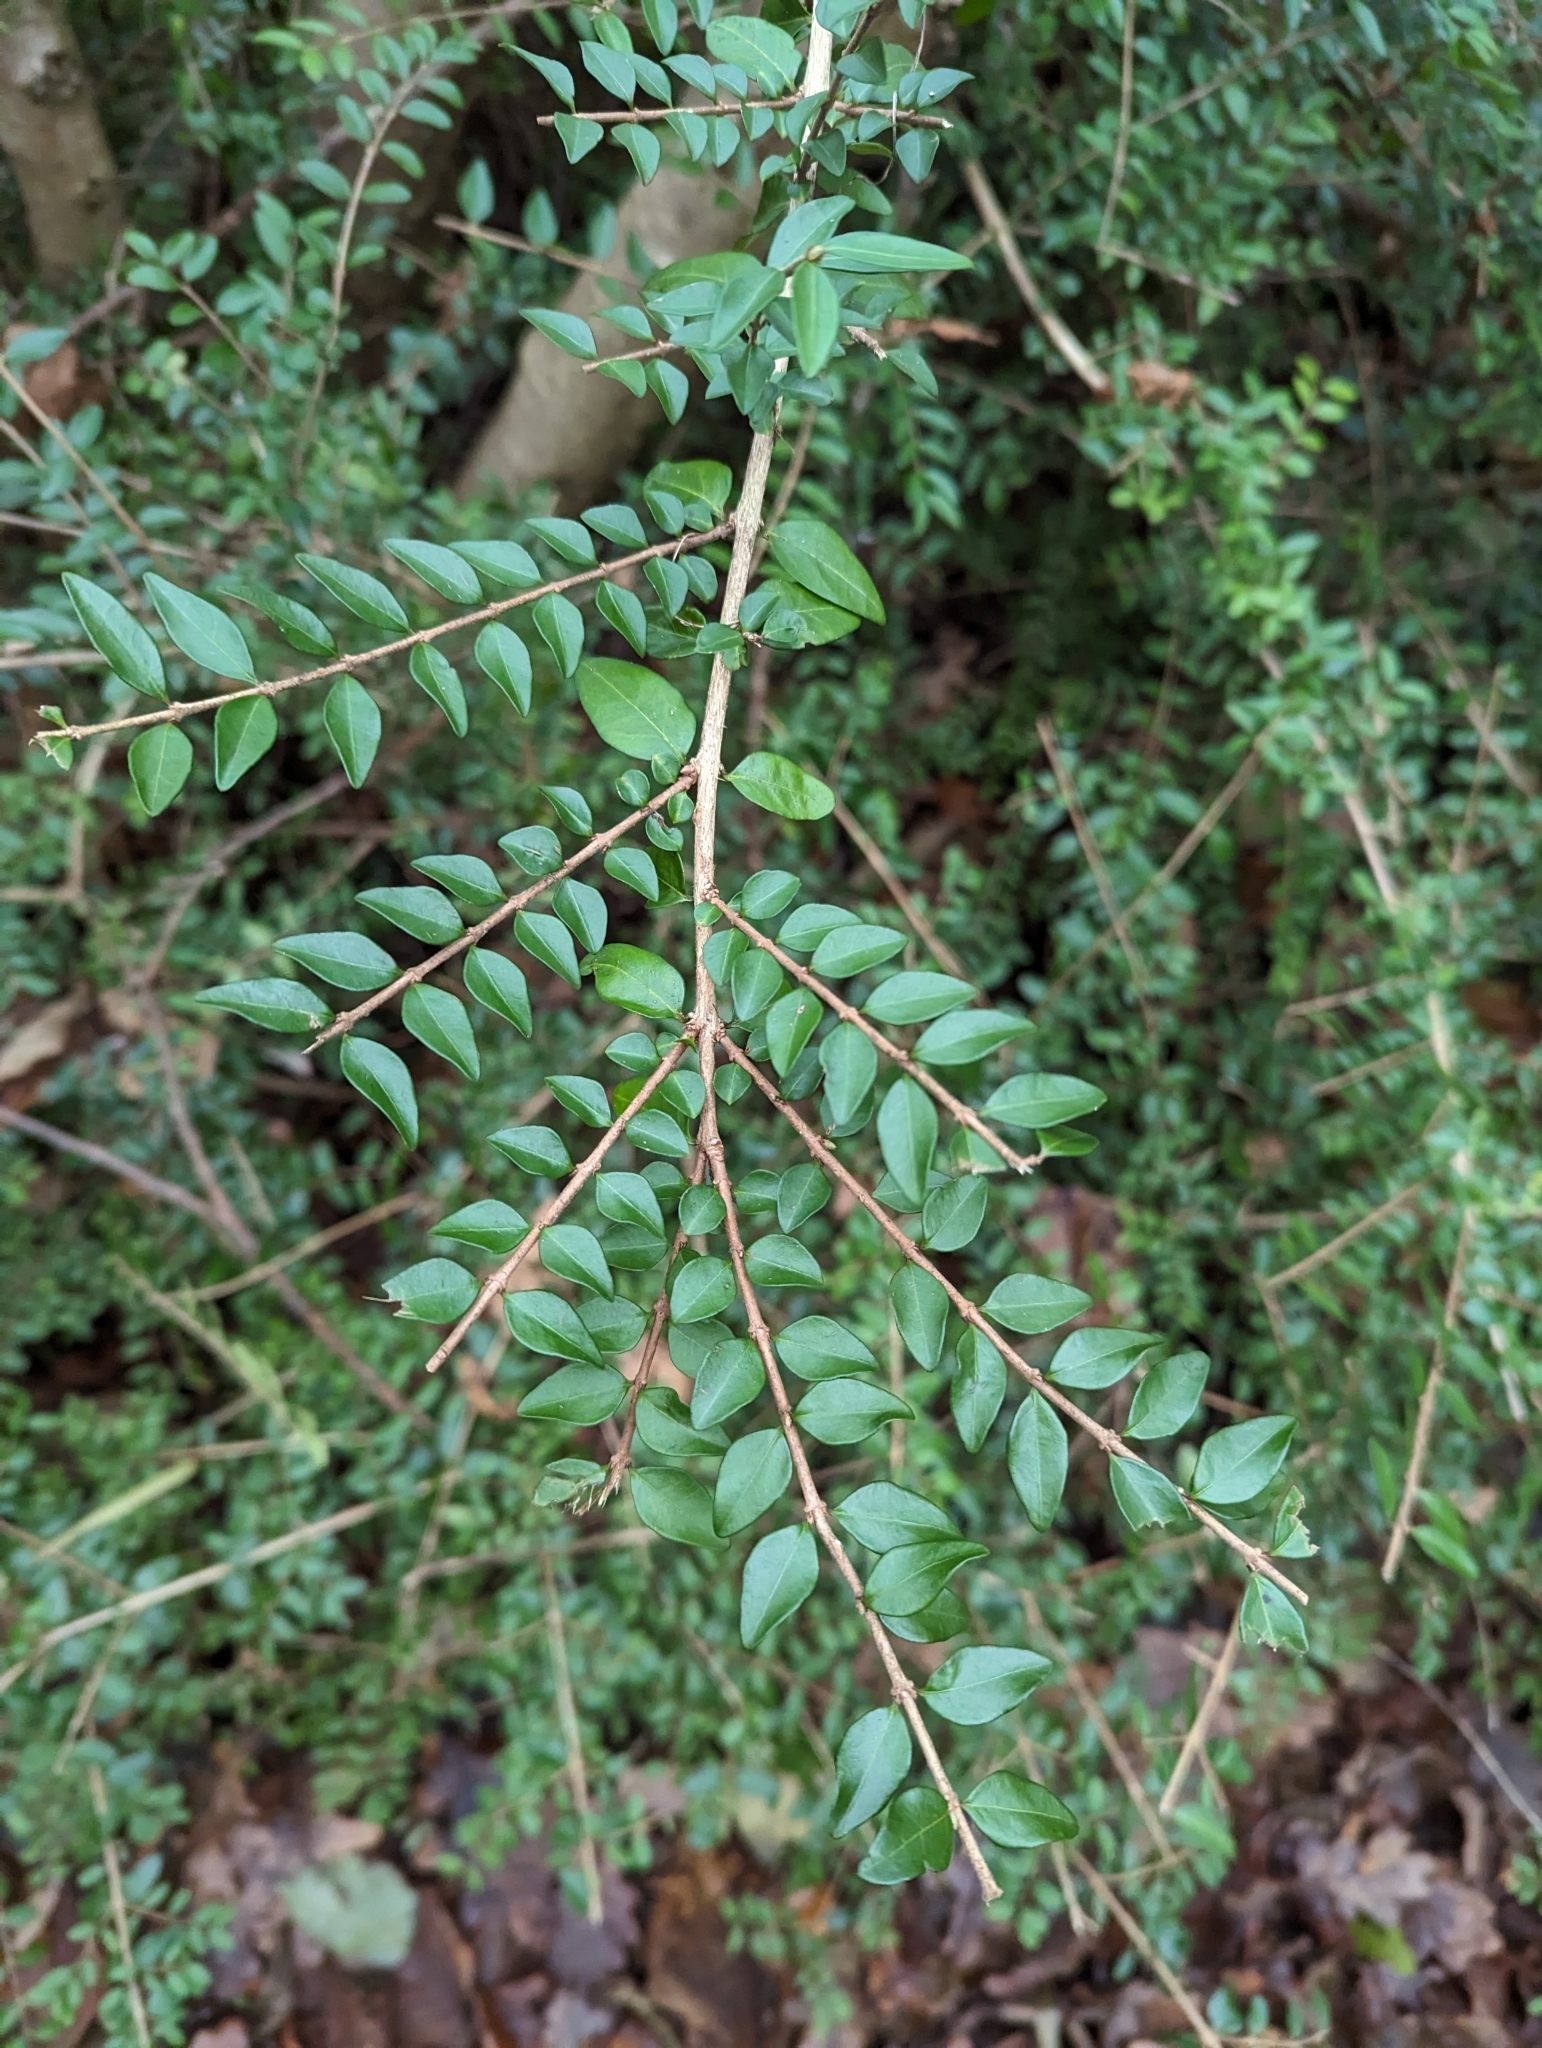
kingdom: Plantae
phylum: Tracheophyta
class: Magnoliopsida
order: Dipsacales
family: Caprifoliaceae
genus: Lonicera
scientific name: Lonicera ligustrina
